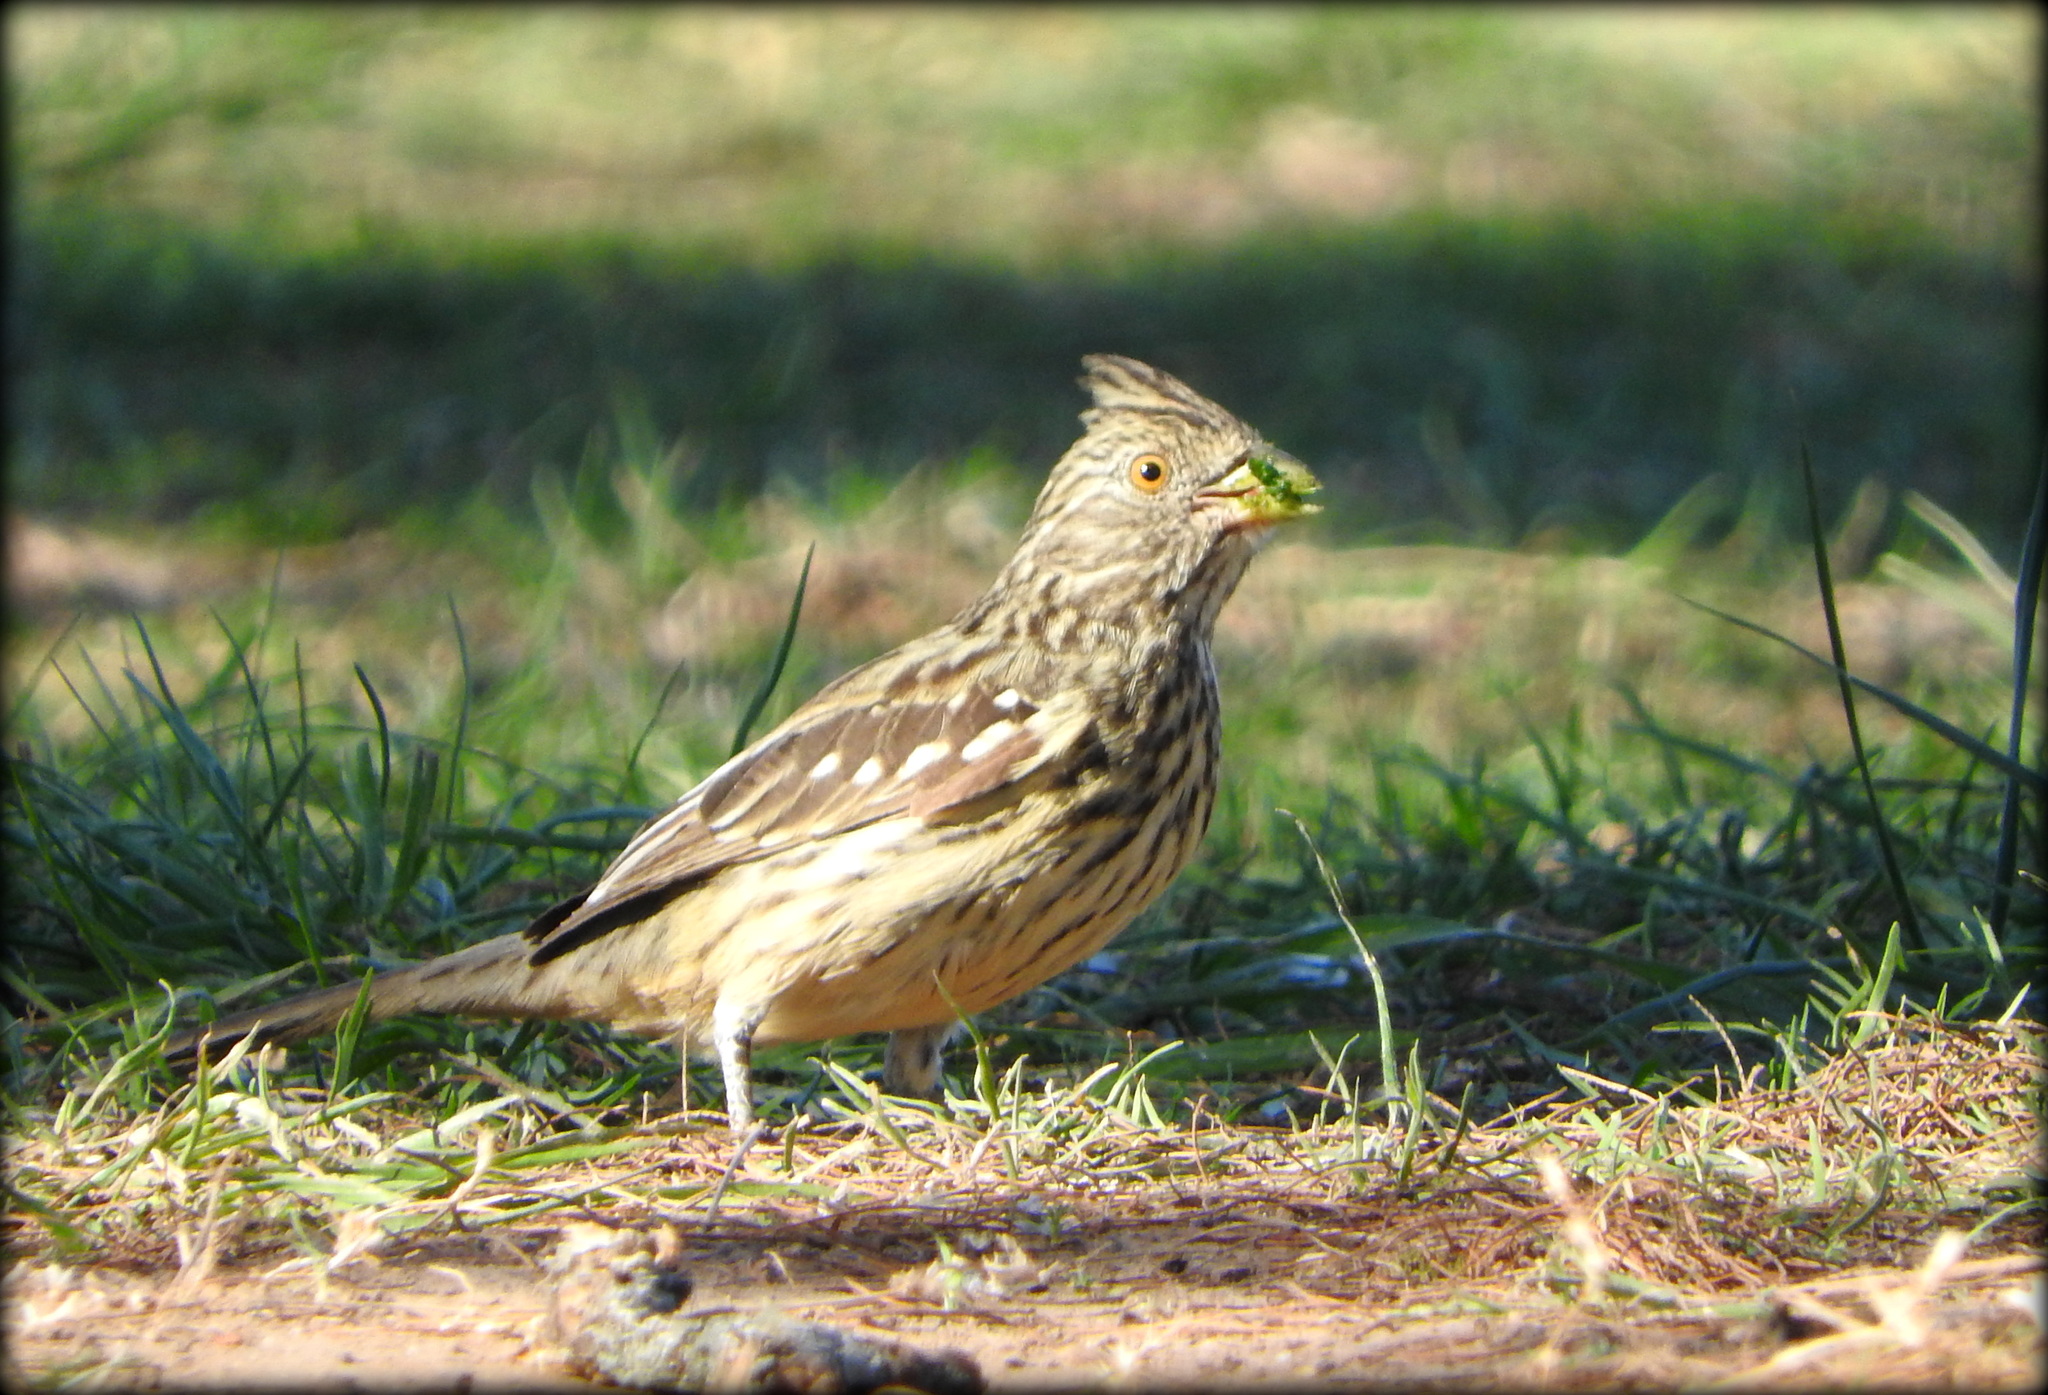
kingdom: Animalia
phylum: Chordata
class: Aves
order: Passeriformes
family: Cotingidae
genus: Phytotoma
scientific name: Phytotoma rutila
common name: White-tipped plantcutter
